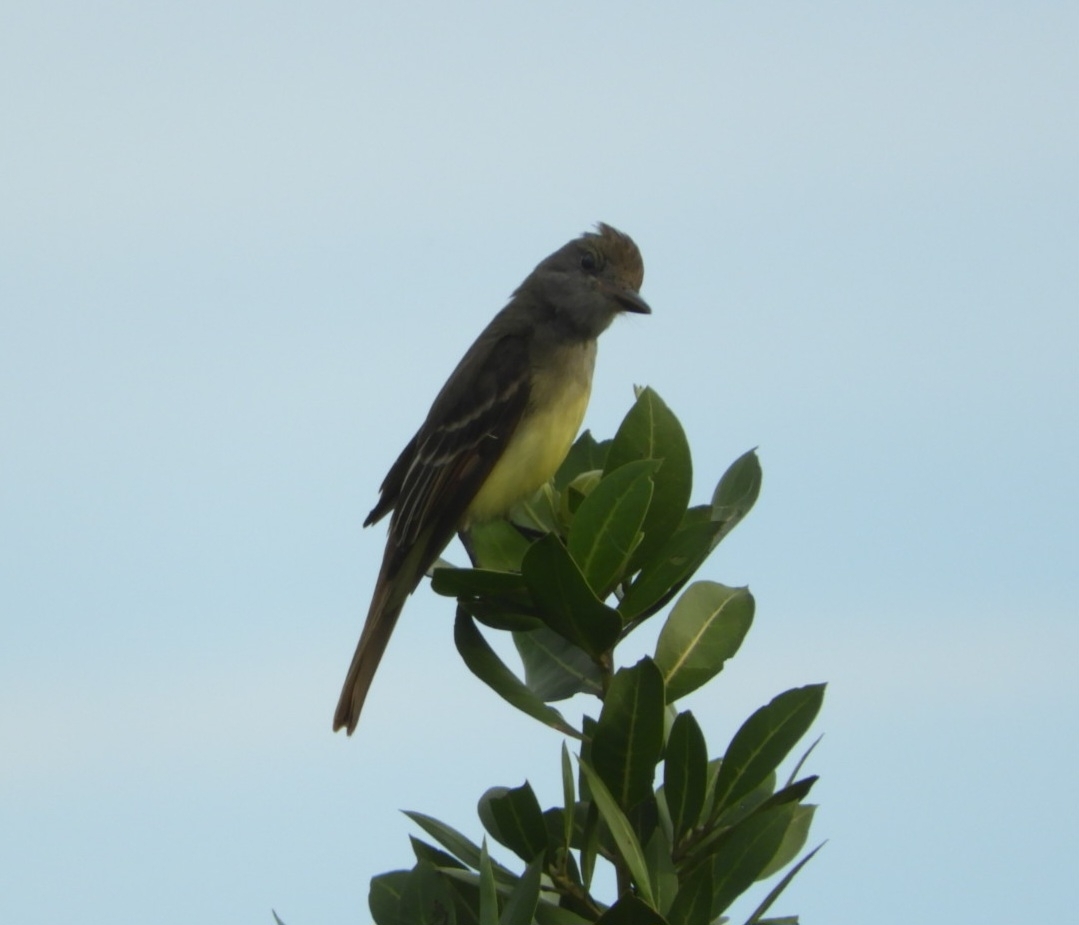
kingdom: Animalia
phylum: Chordata
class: Aves
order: Passeriformes
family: Tyrannidae
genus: Myiarchus
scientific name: Myiarchus crinitus
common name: Great crested flycatcher
